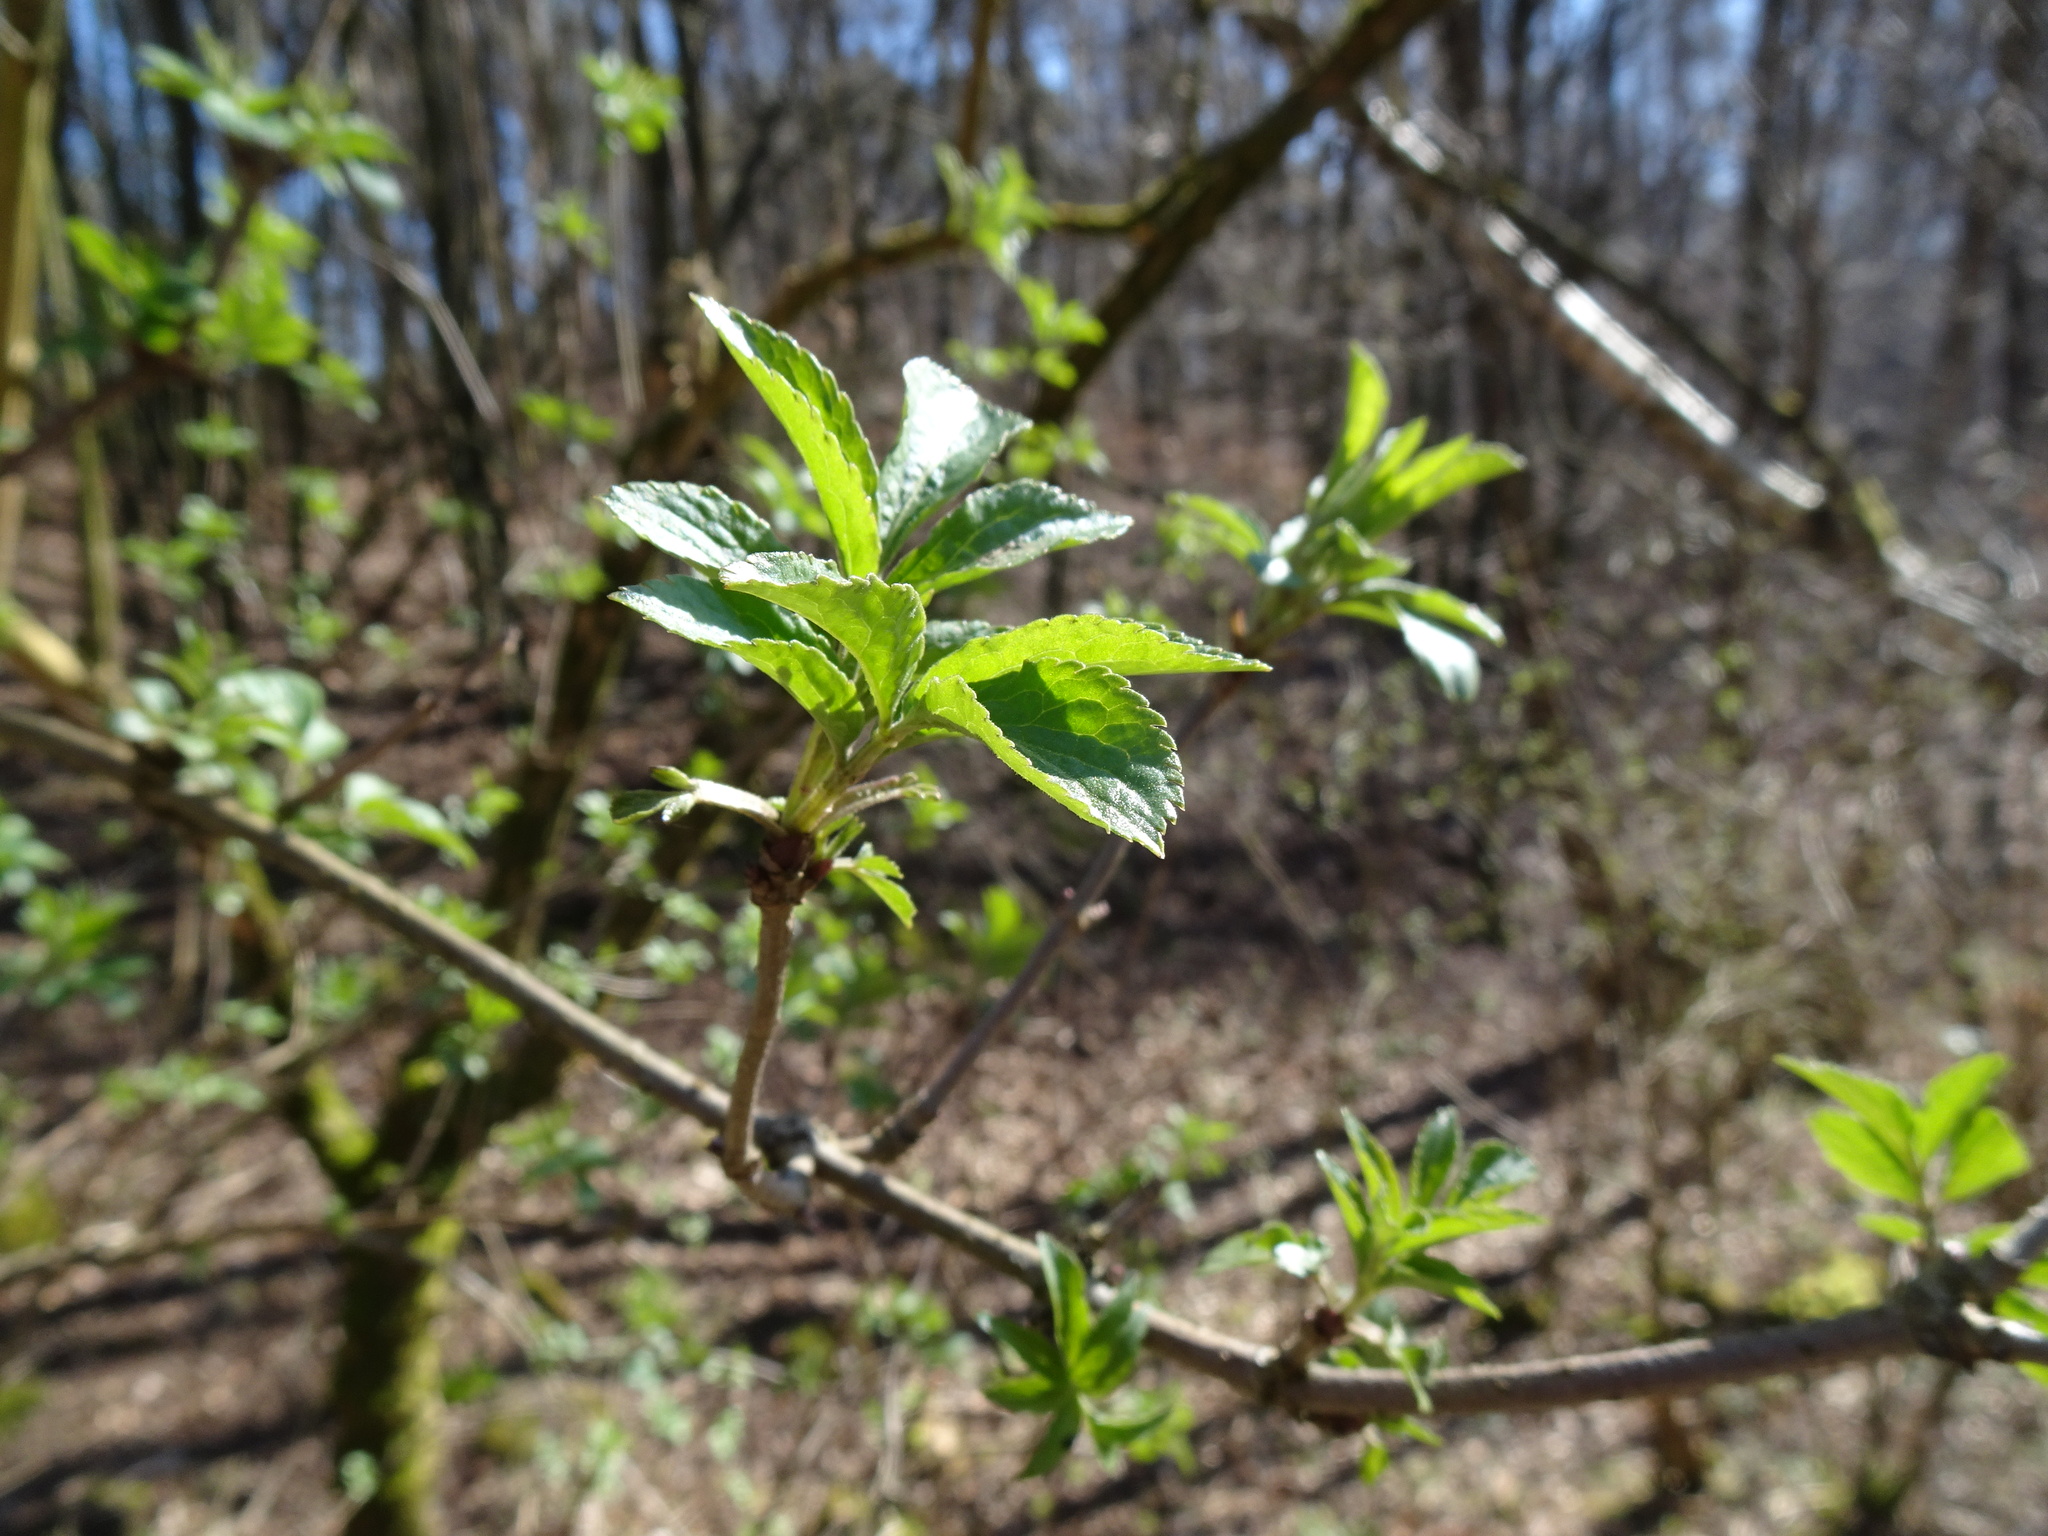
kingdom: Plantae
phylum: Tracheophyta
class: Magnoliopsida
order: Dipsacales
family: Viburnaceae
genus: Sambucus
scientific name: Sambucus nigra
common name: Elder
